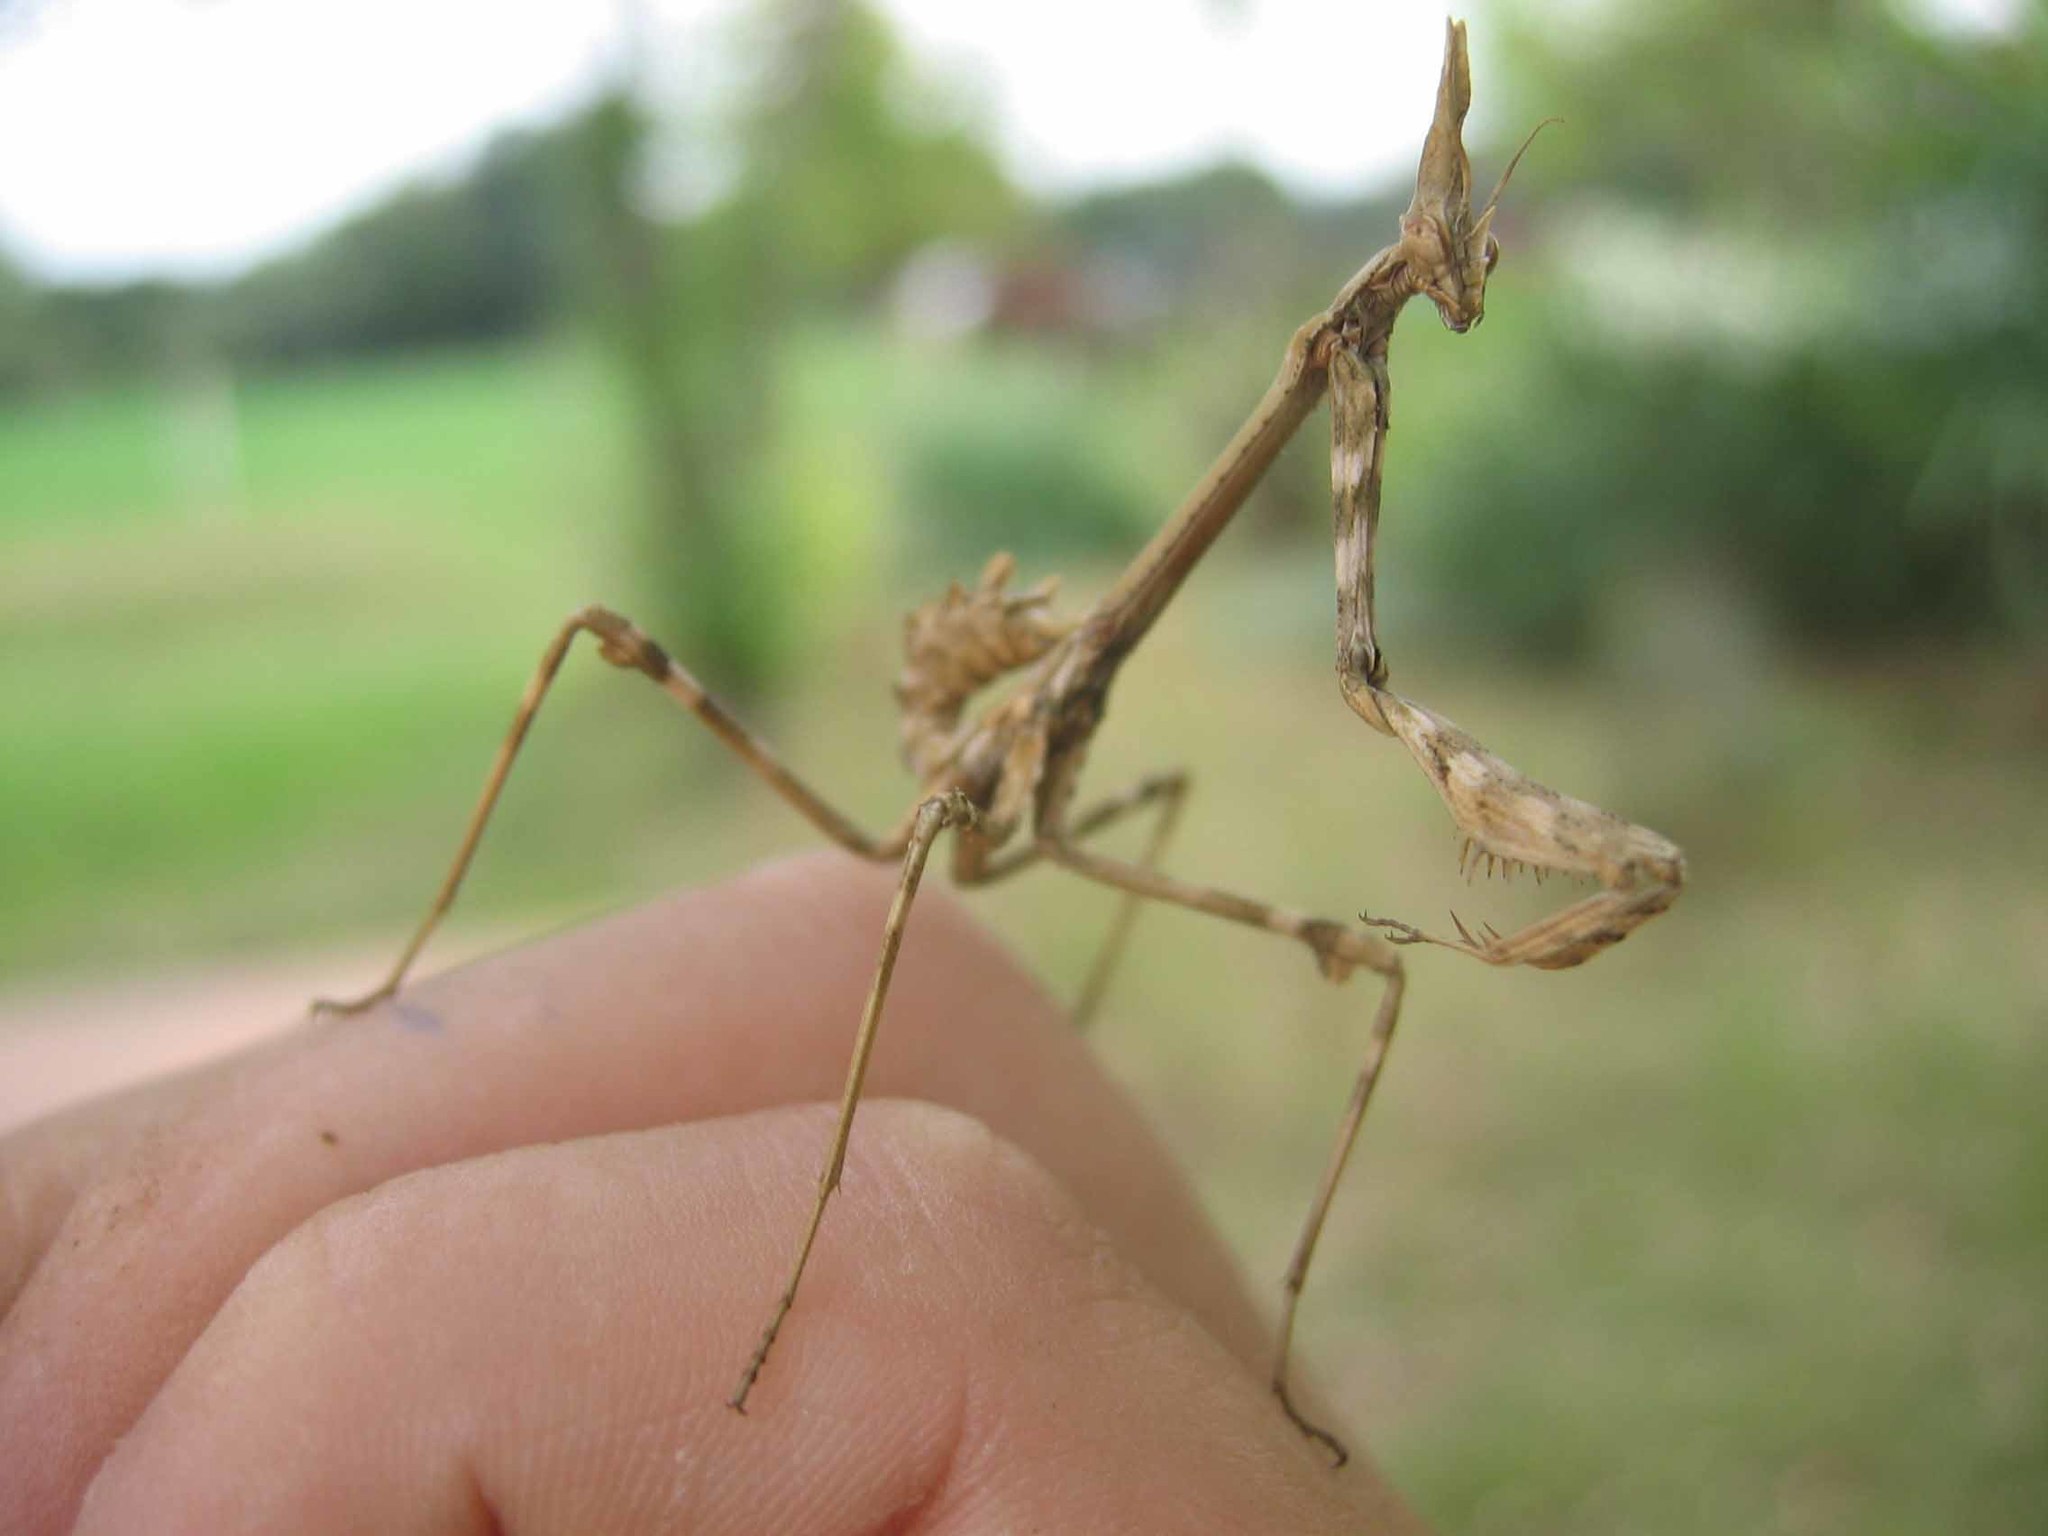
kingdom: Animalia
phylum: Arthropoda
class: Insecta
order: Mantodea
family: Empusidae
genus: Empusa
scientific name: Empusa pennata
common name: Conehead mantis
